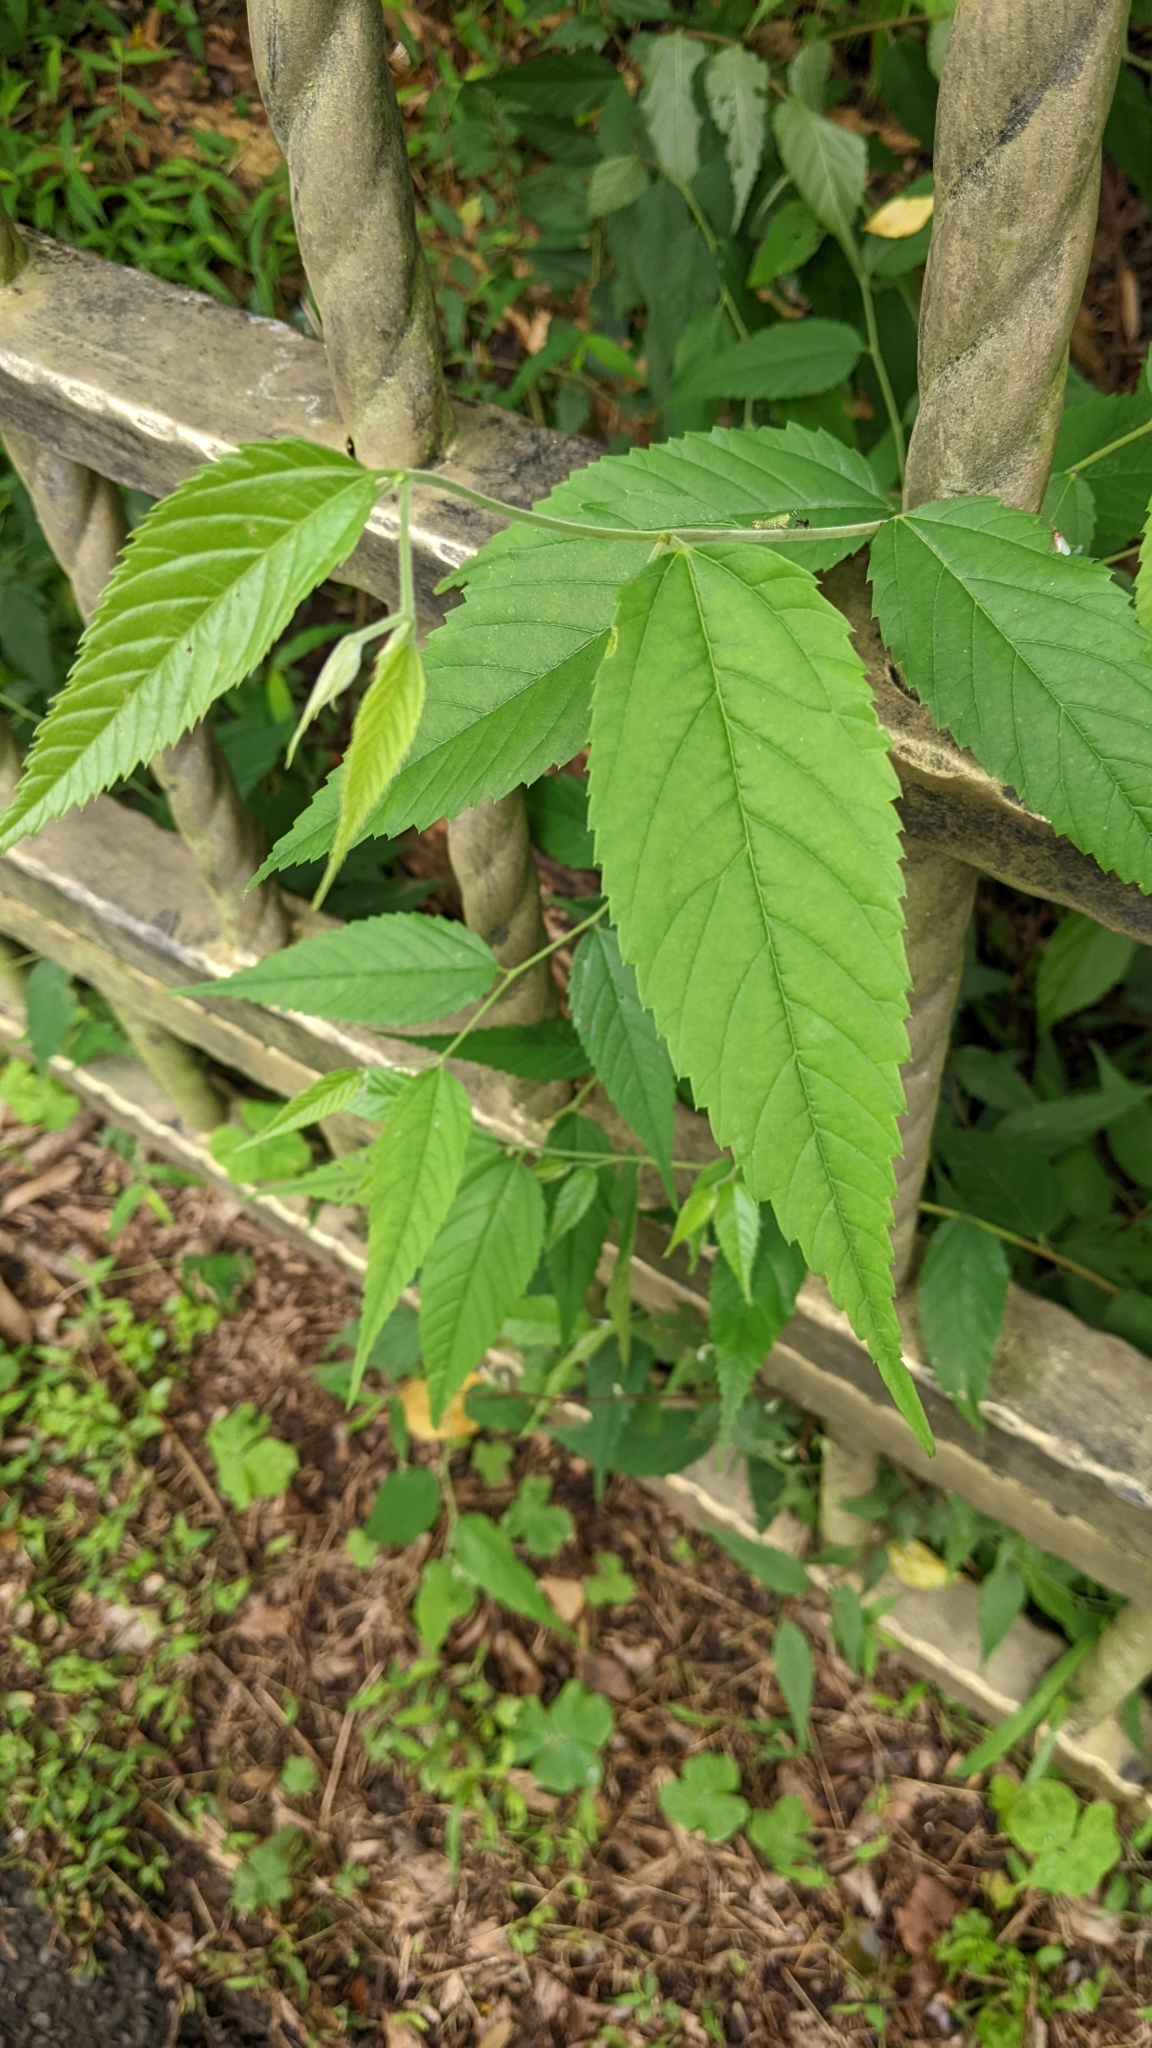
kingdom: Plantae
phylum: Tracheophyta
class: Magnoliopsida
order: Rosales
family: Cannabaceae
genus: Aphananthe
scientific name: Aphananthe aspera
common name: Mukutree
